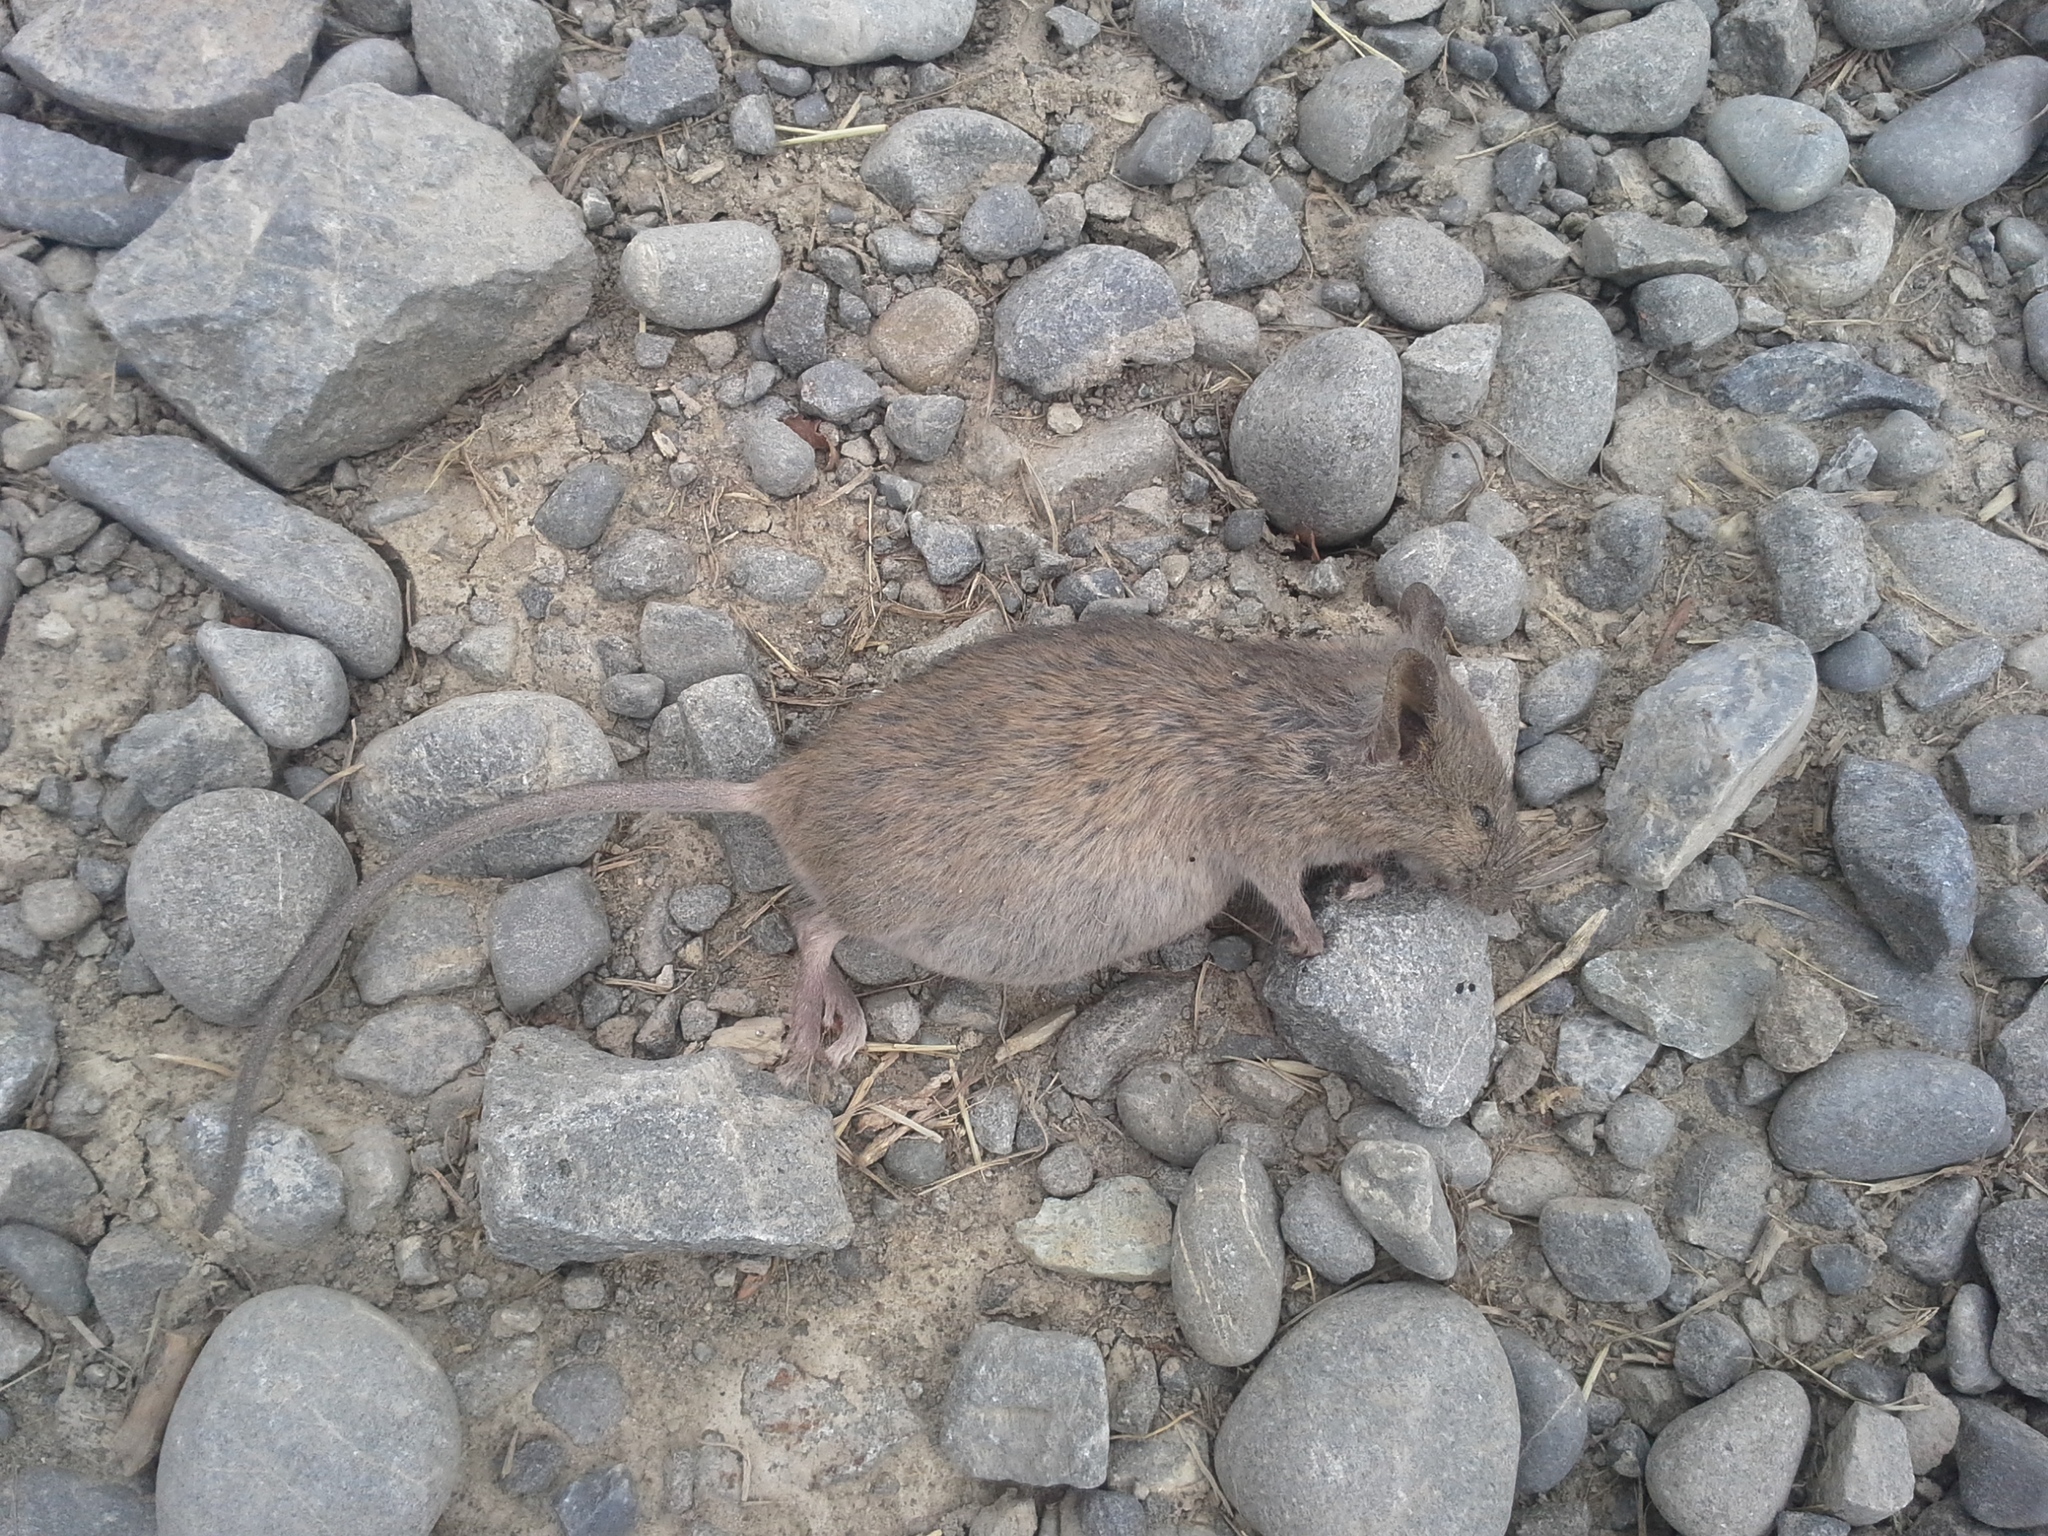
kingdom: Animalia
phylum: Chordata
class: Mammalia
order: Rodentia
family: Muridae
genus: Mus
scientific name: Mus musculus
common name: House mouse
